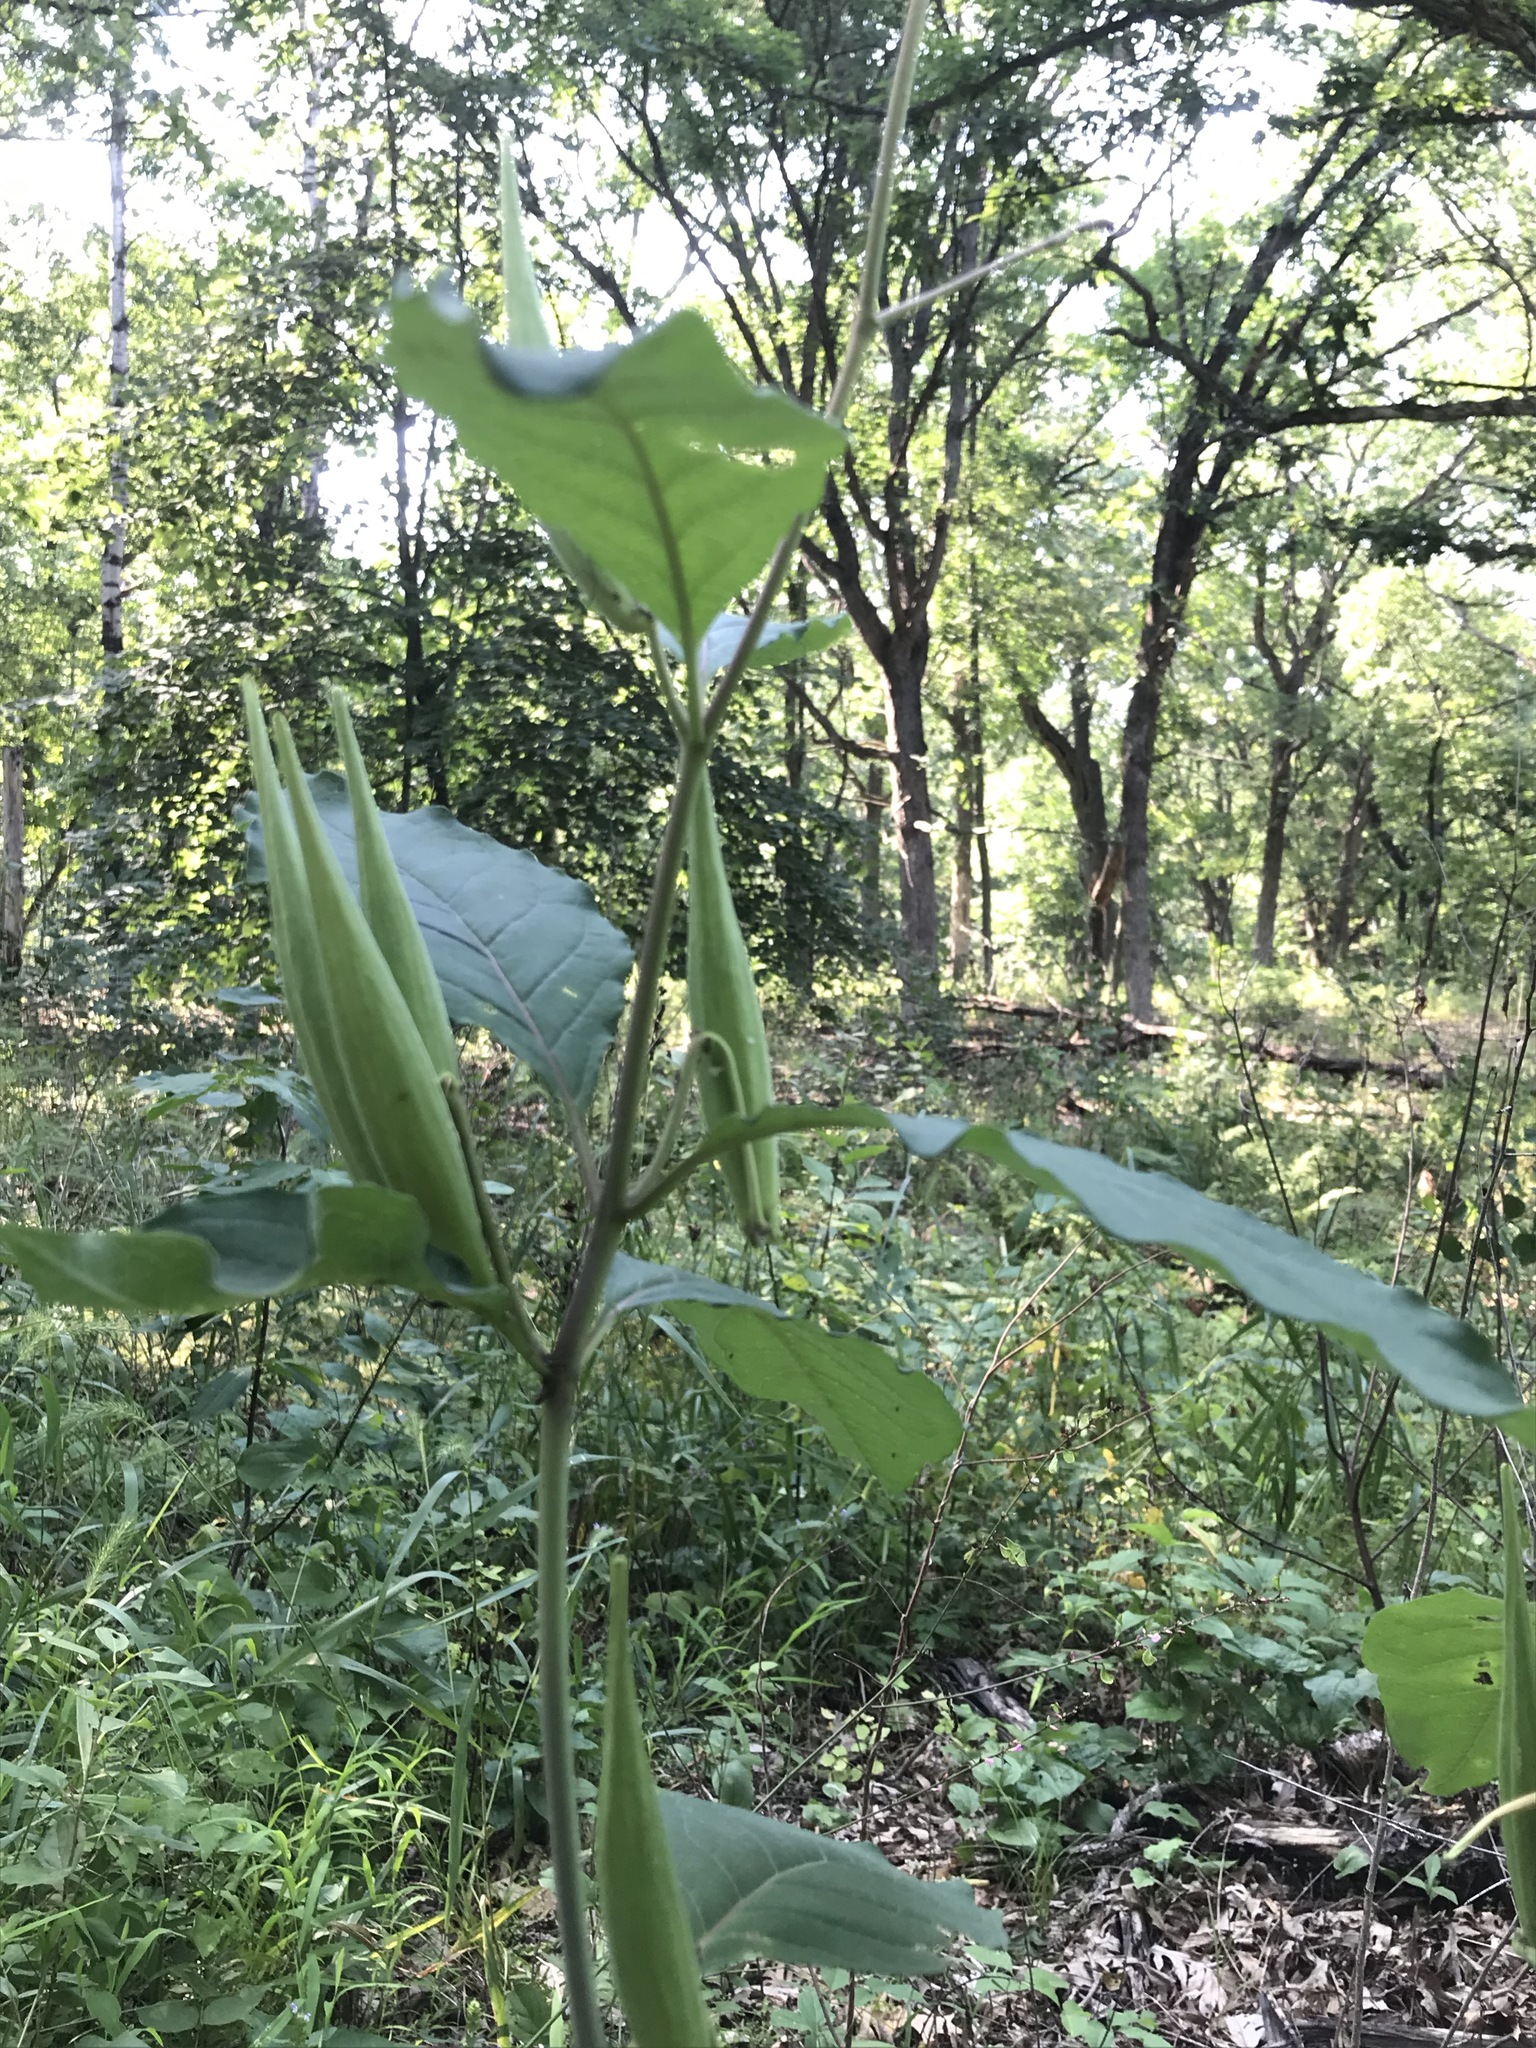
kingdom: Plantae
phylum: Tracheophyta
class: Magnoliopsida
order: Gentianales
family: Apocynaceae
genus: Asclepias
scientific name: Asclepias exaltata
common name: Poke milkweed
